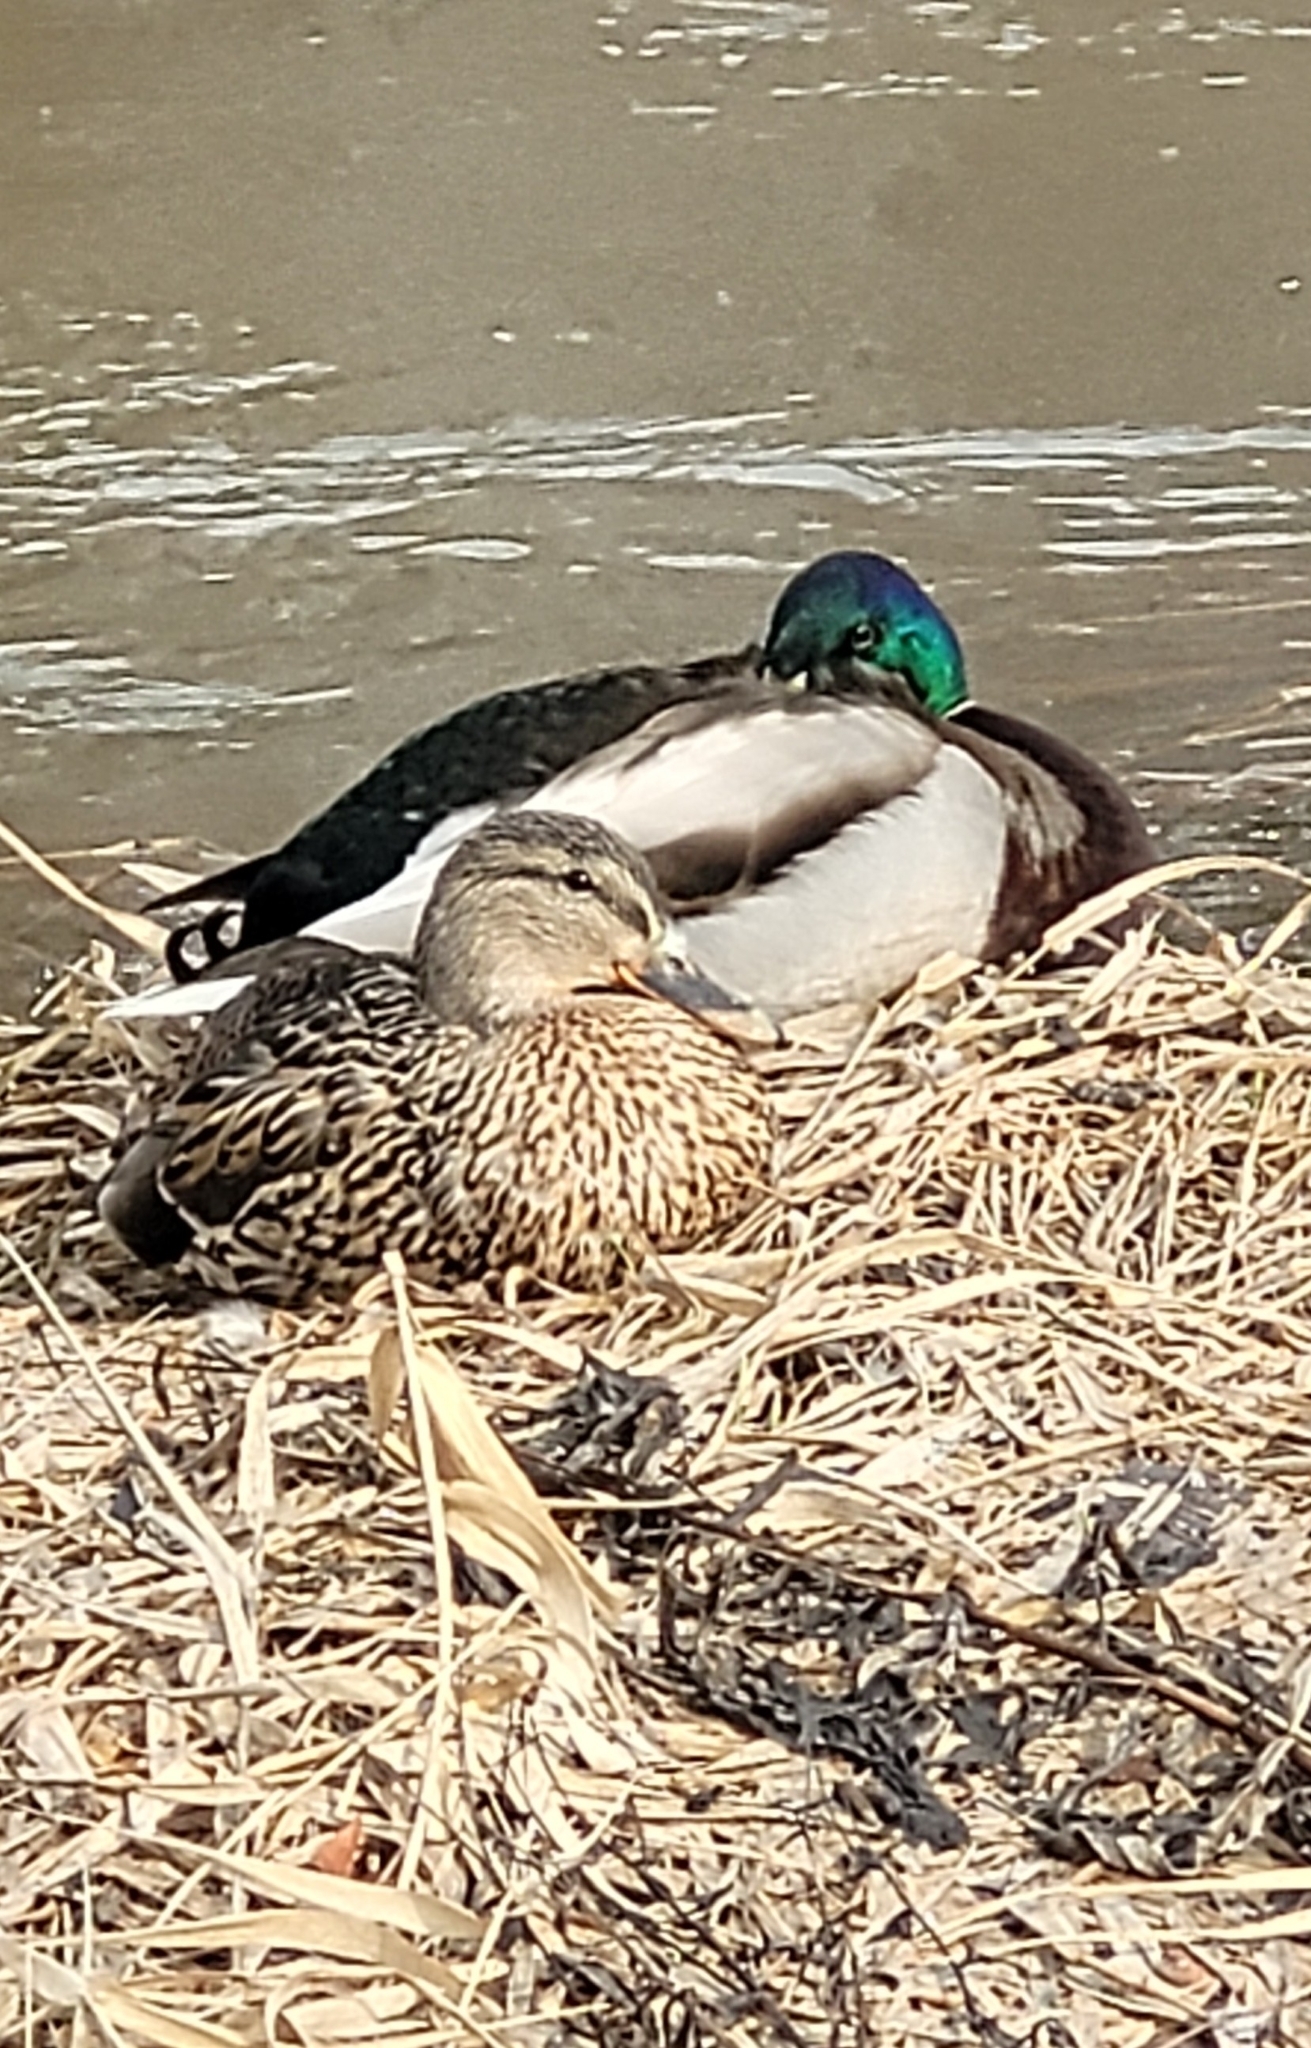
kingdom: Animalia
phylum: Chordata
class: Aves
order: Anseriformes
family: Anatidae
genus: Anas
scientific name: Anas platyrhynchos
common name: Mallard
